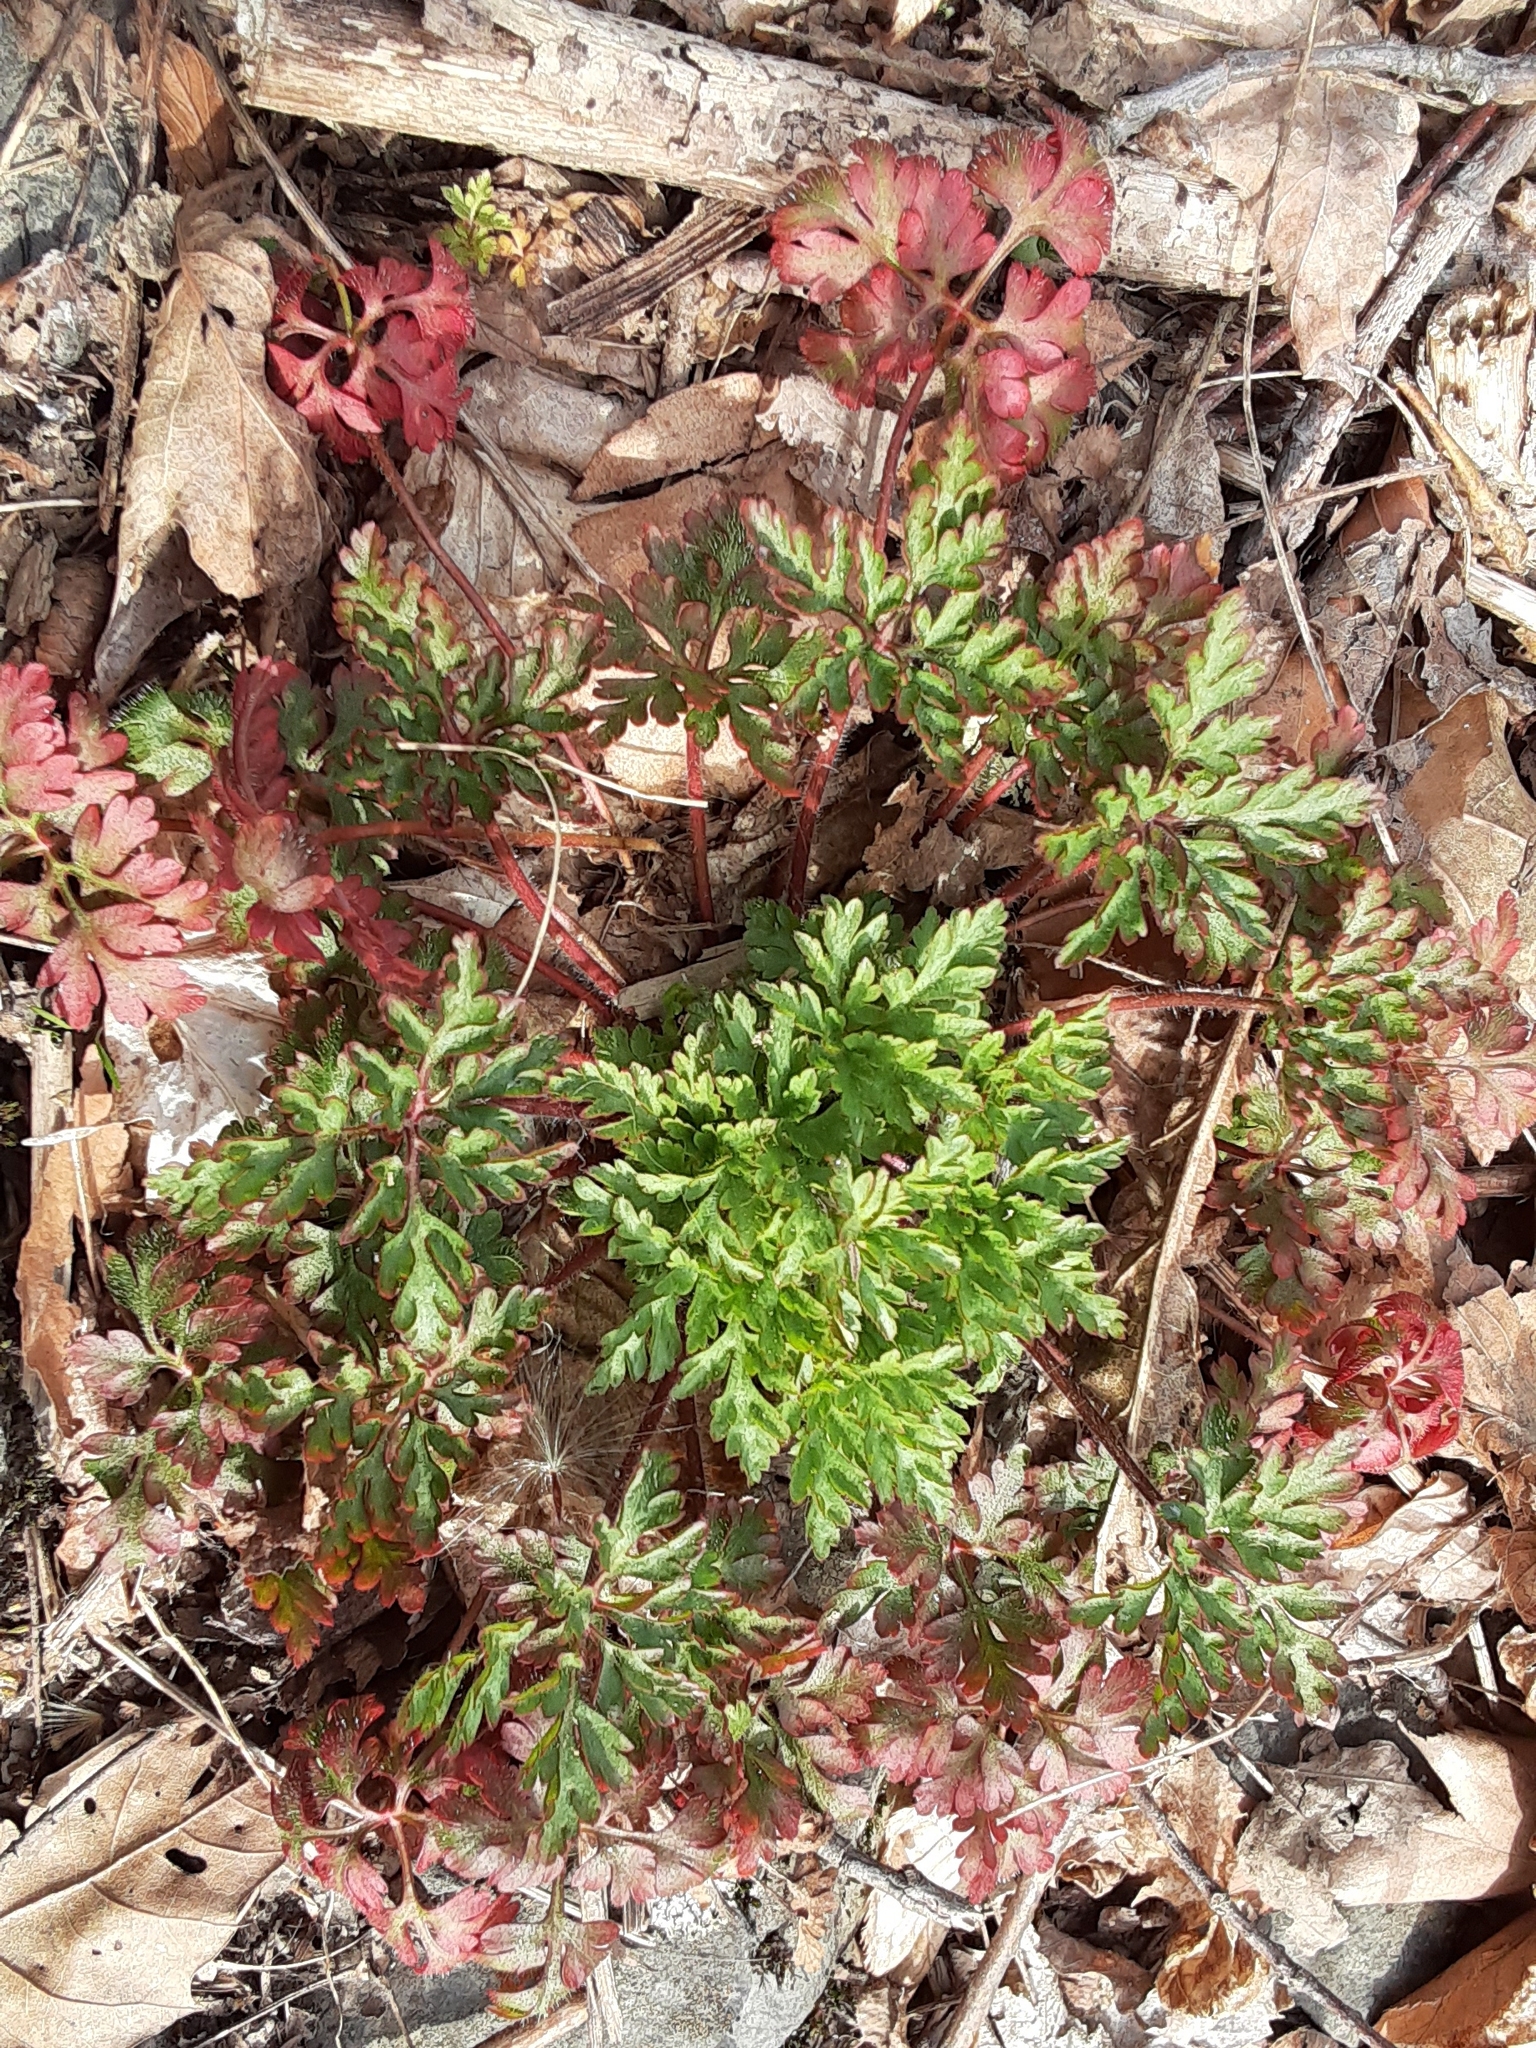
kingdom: Plantae
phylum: Tracheophyta
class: Magnoliopsida
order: Geraniales
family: Geraniaceae
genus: Geranium
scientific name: Geranium robertianum
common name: Herb-robert
